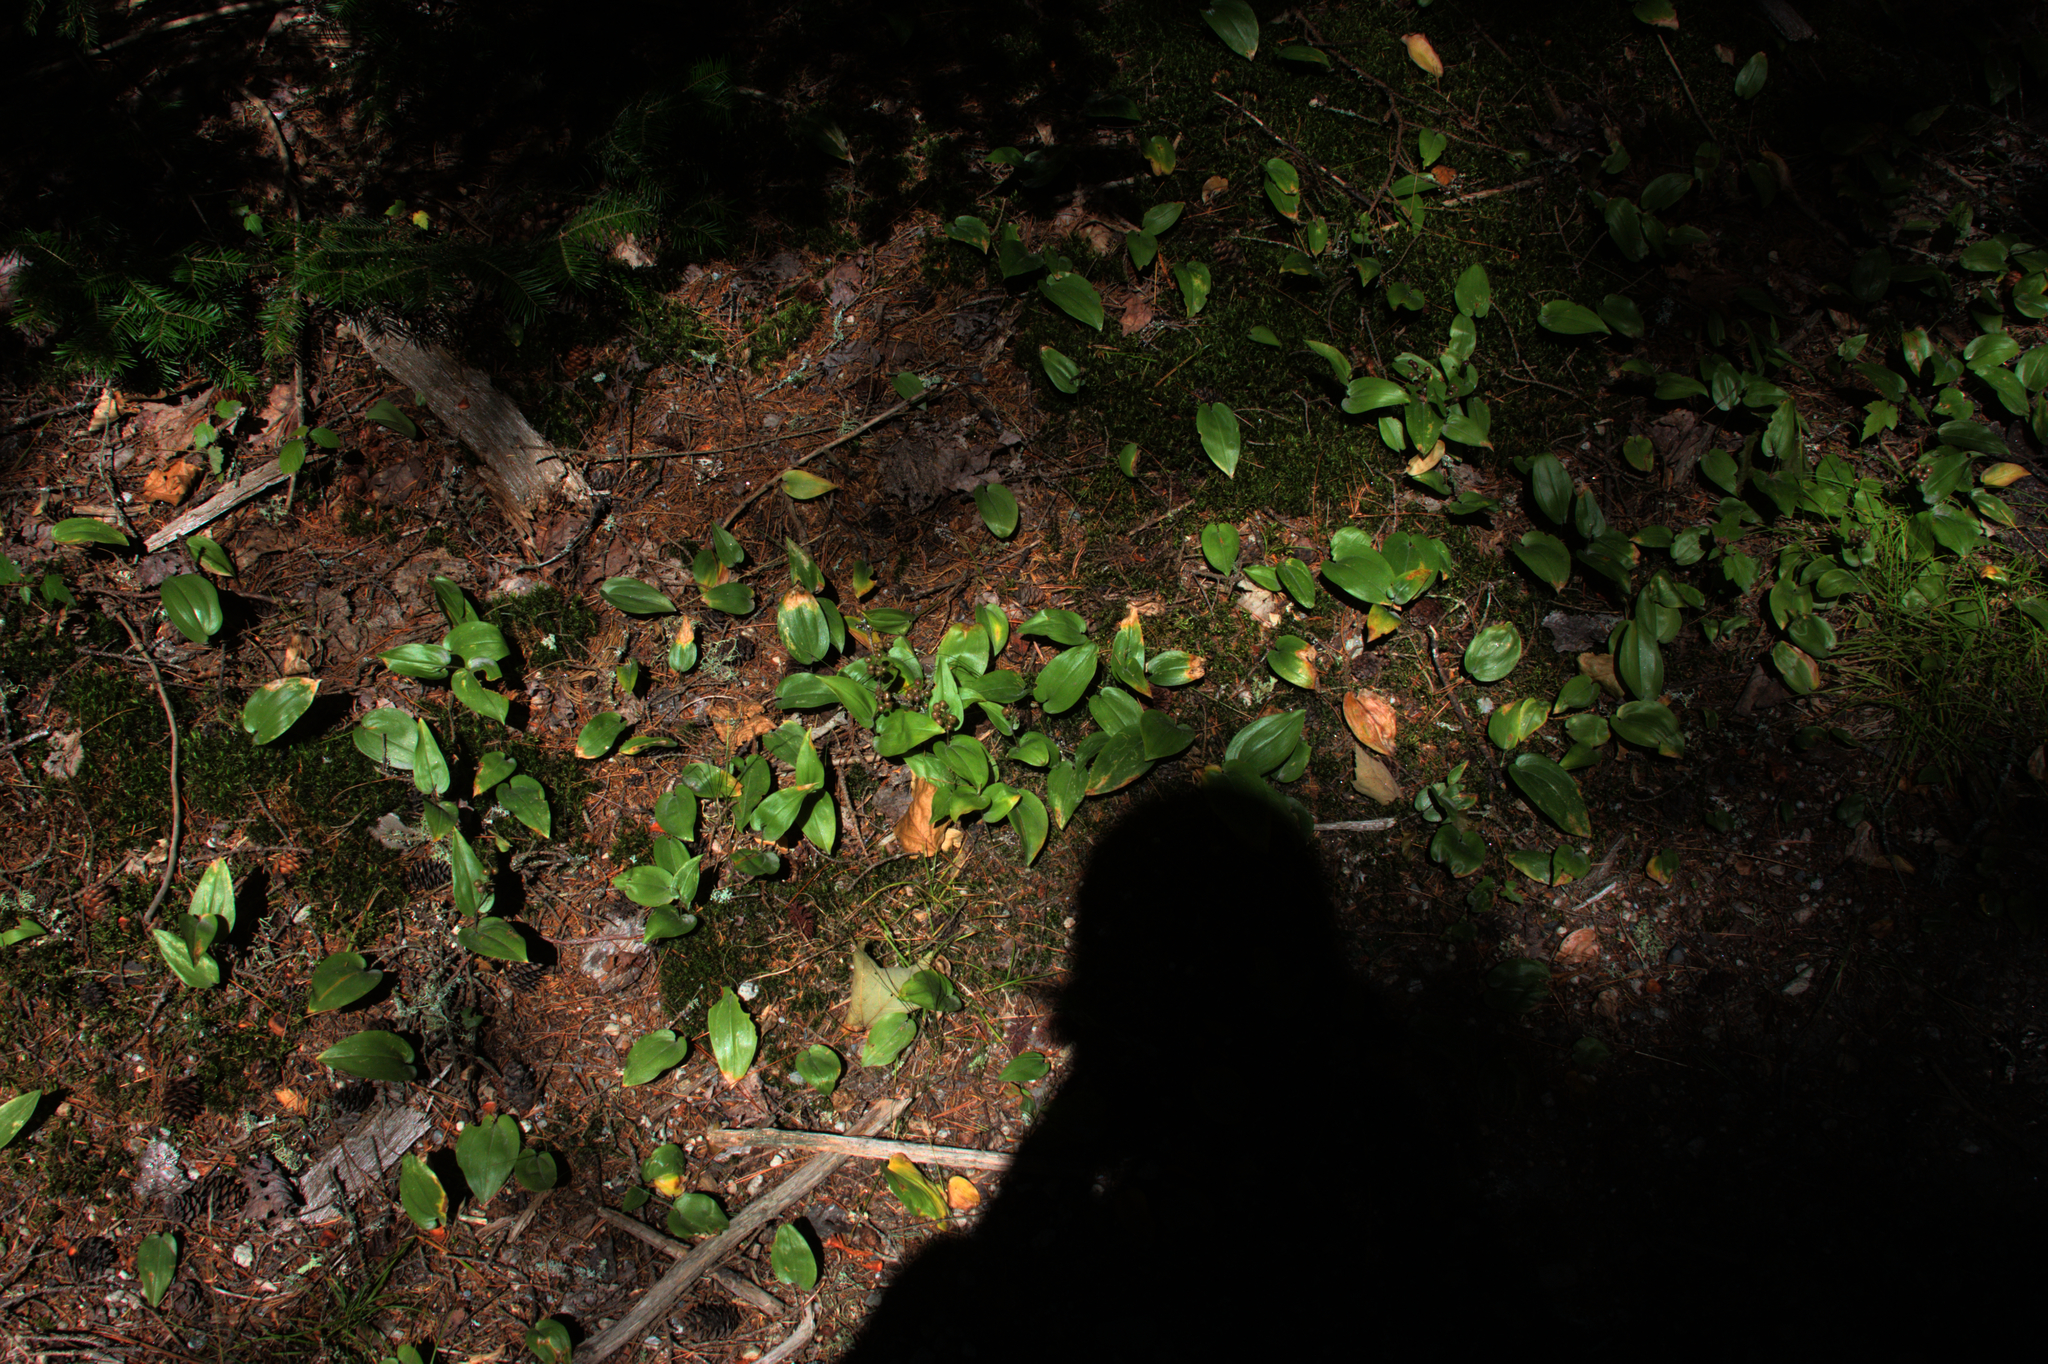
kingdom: Plantae
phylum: Tracheophyta
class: Liliopsida
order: Asparagales
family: Asparagaceae
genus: Maianthemum
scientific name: Maianthemum canadense
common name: False lily-of-the-valley
